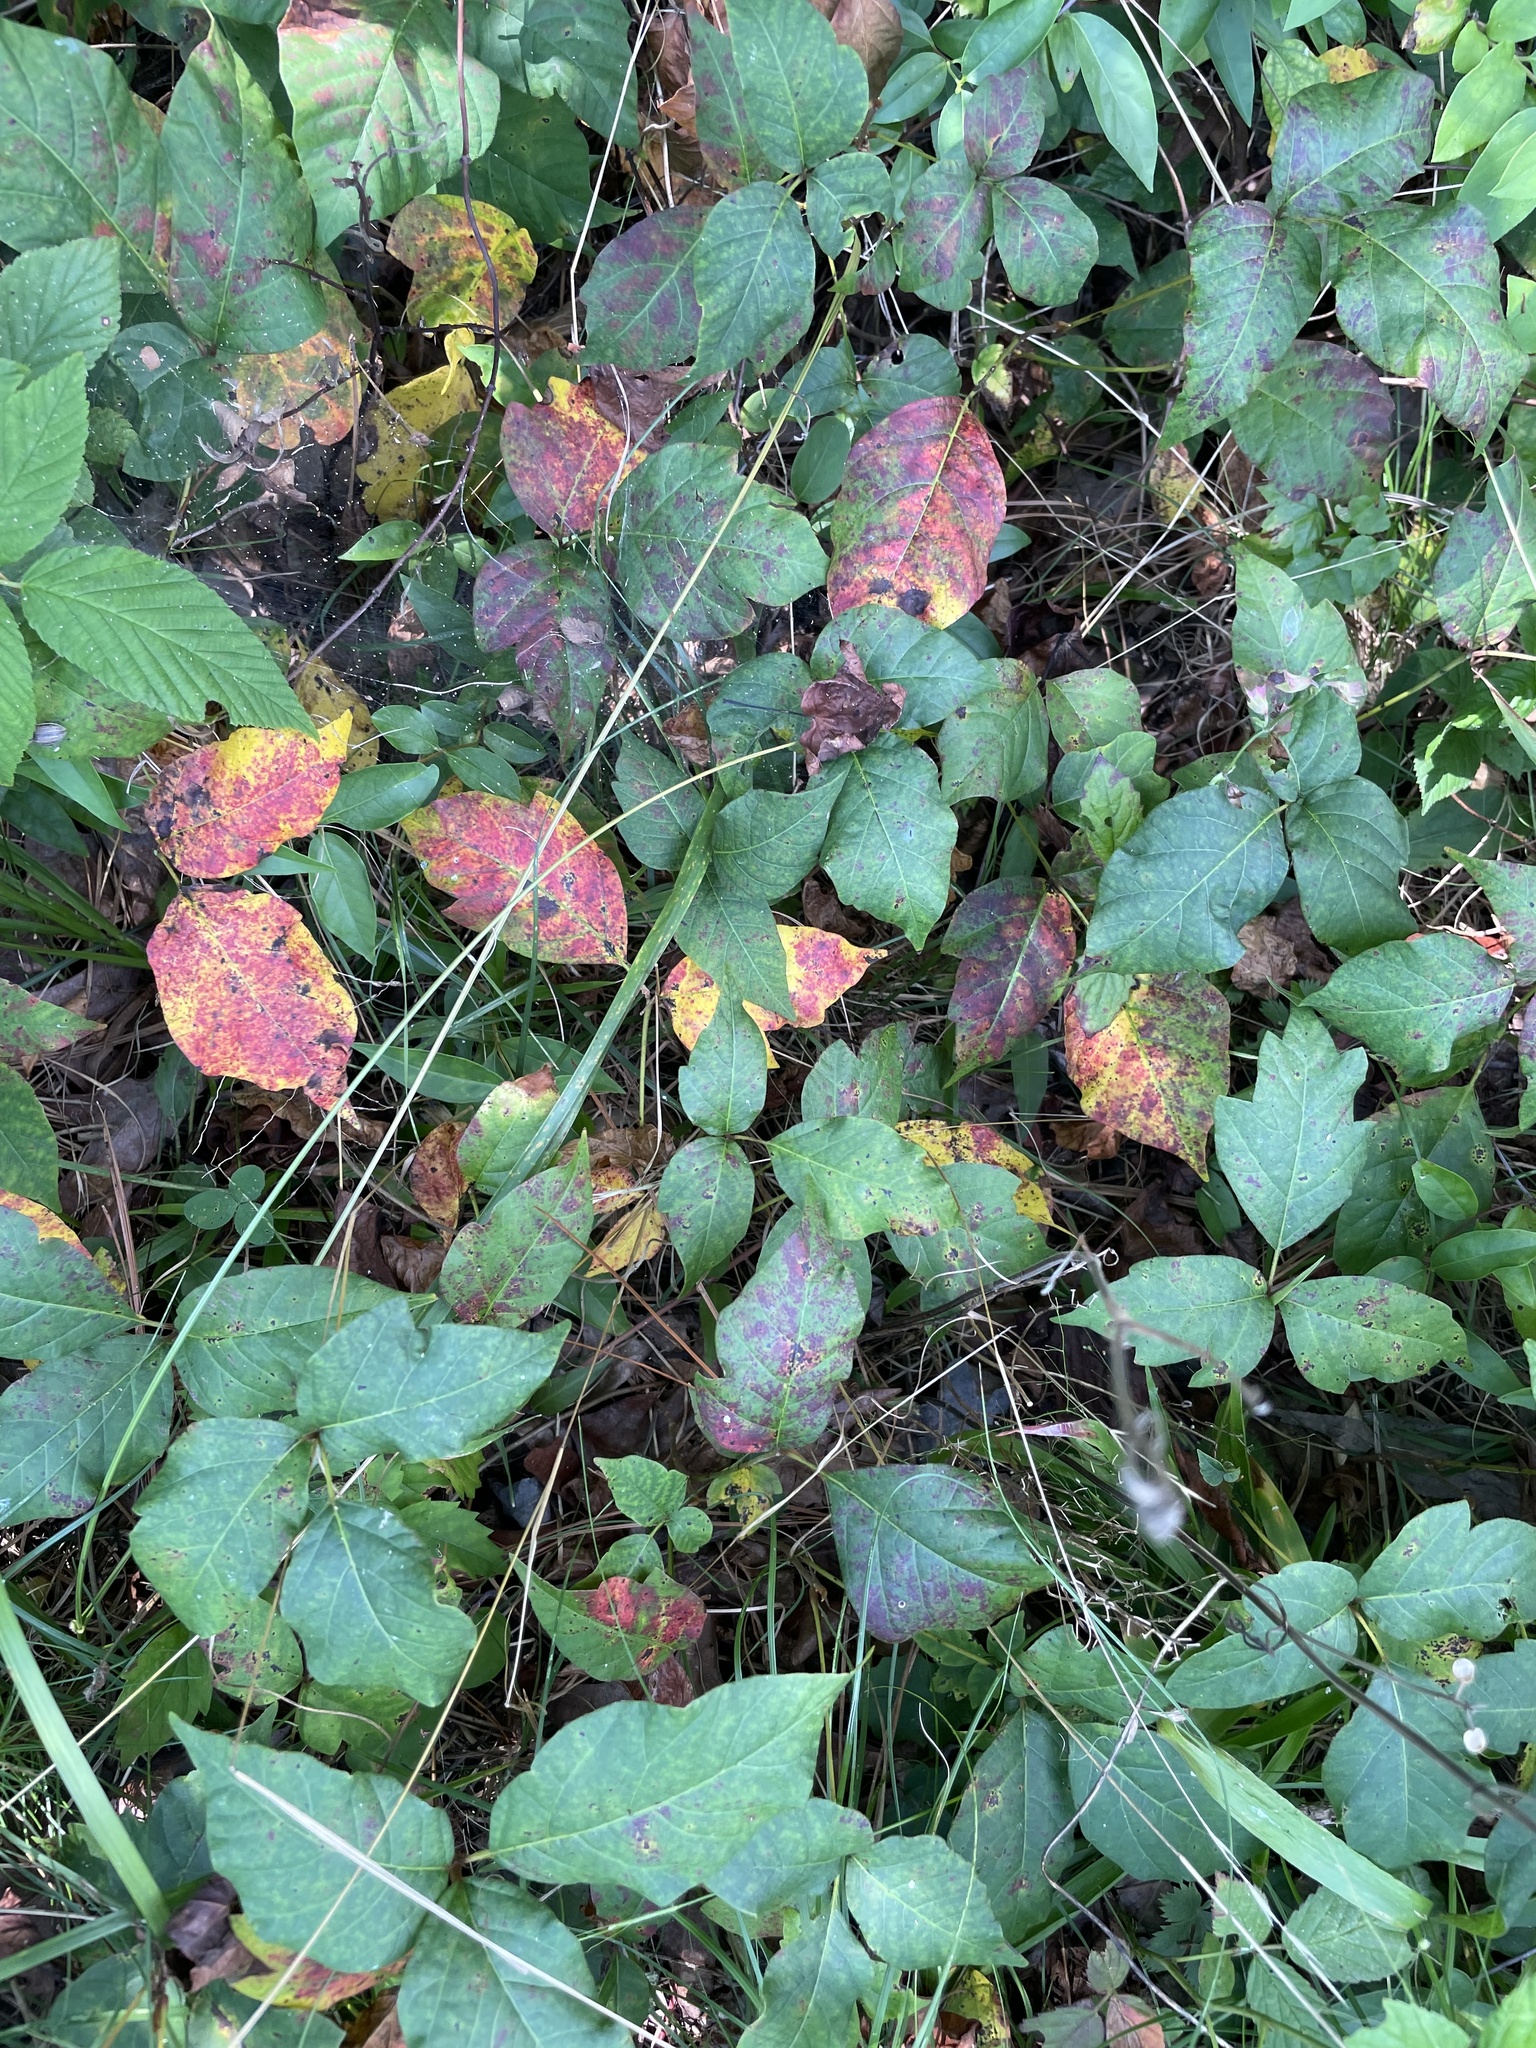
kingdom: Plantae
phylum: Tracheophyta
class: Magnoliopsida
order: Sapindales
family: Anacardiaceae
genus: Toxicodendron
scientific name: Toxicodendron radicans
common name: Poison ivy
